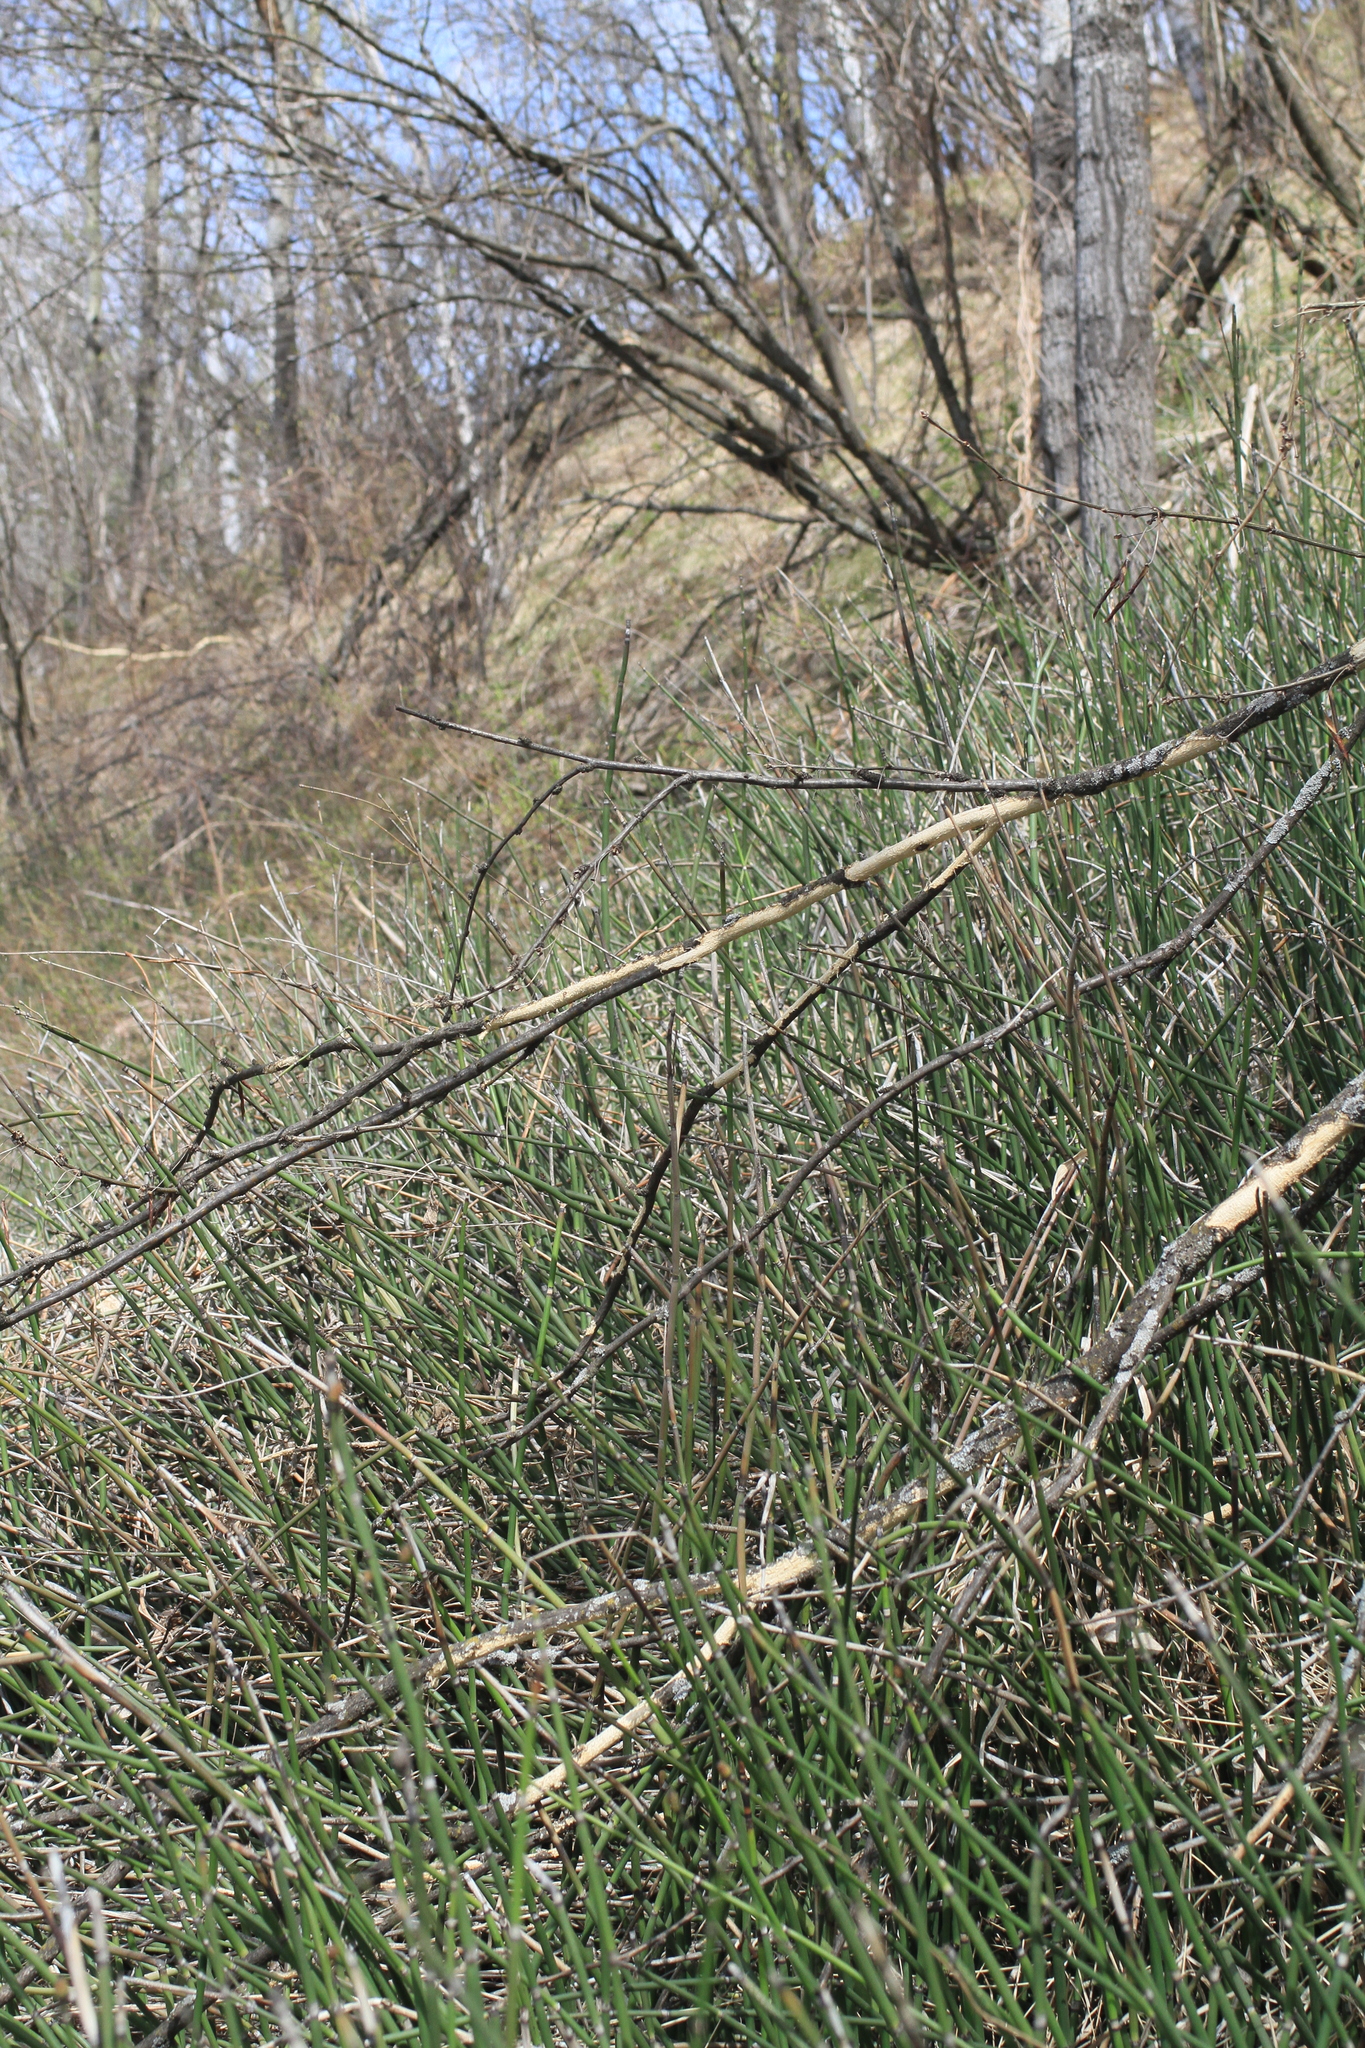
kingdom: Plantae
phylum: Tracheophyta
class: Polypodiopsida
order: Equisetales
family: Equisetaceae
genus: Equisetum
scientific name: Equisetum hyemale
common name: Rough horsetail
